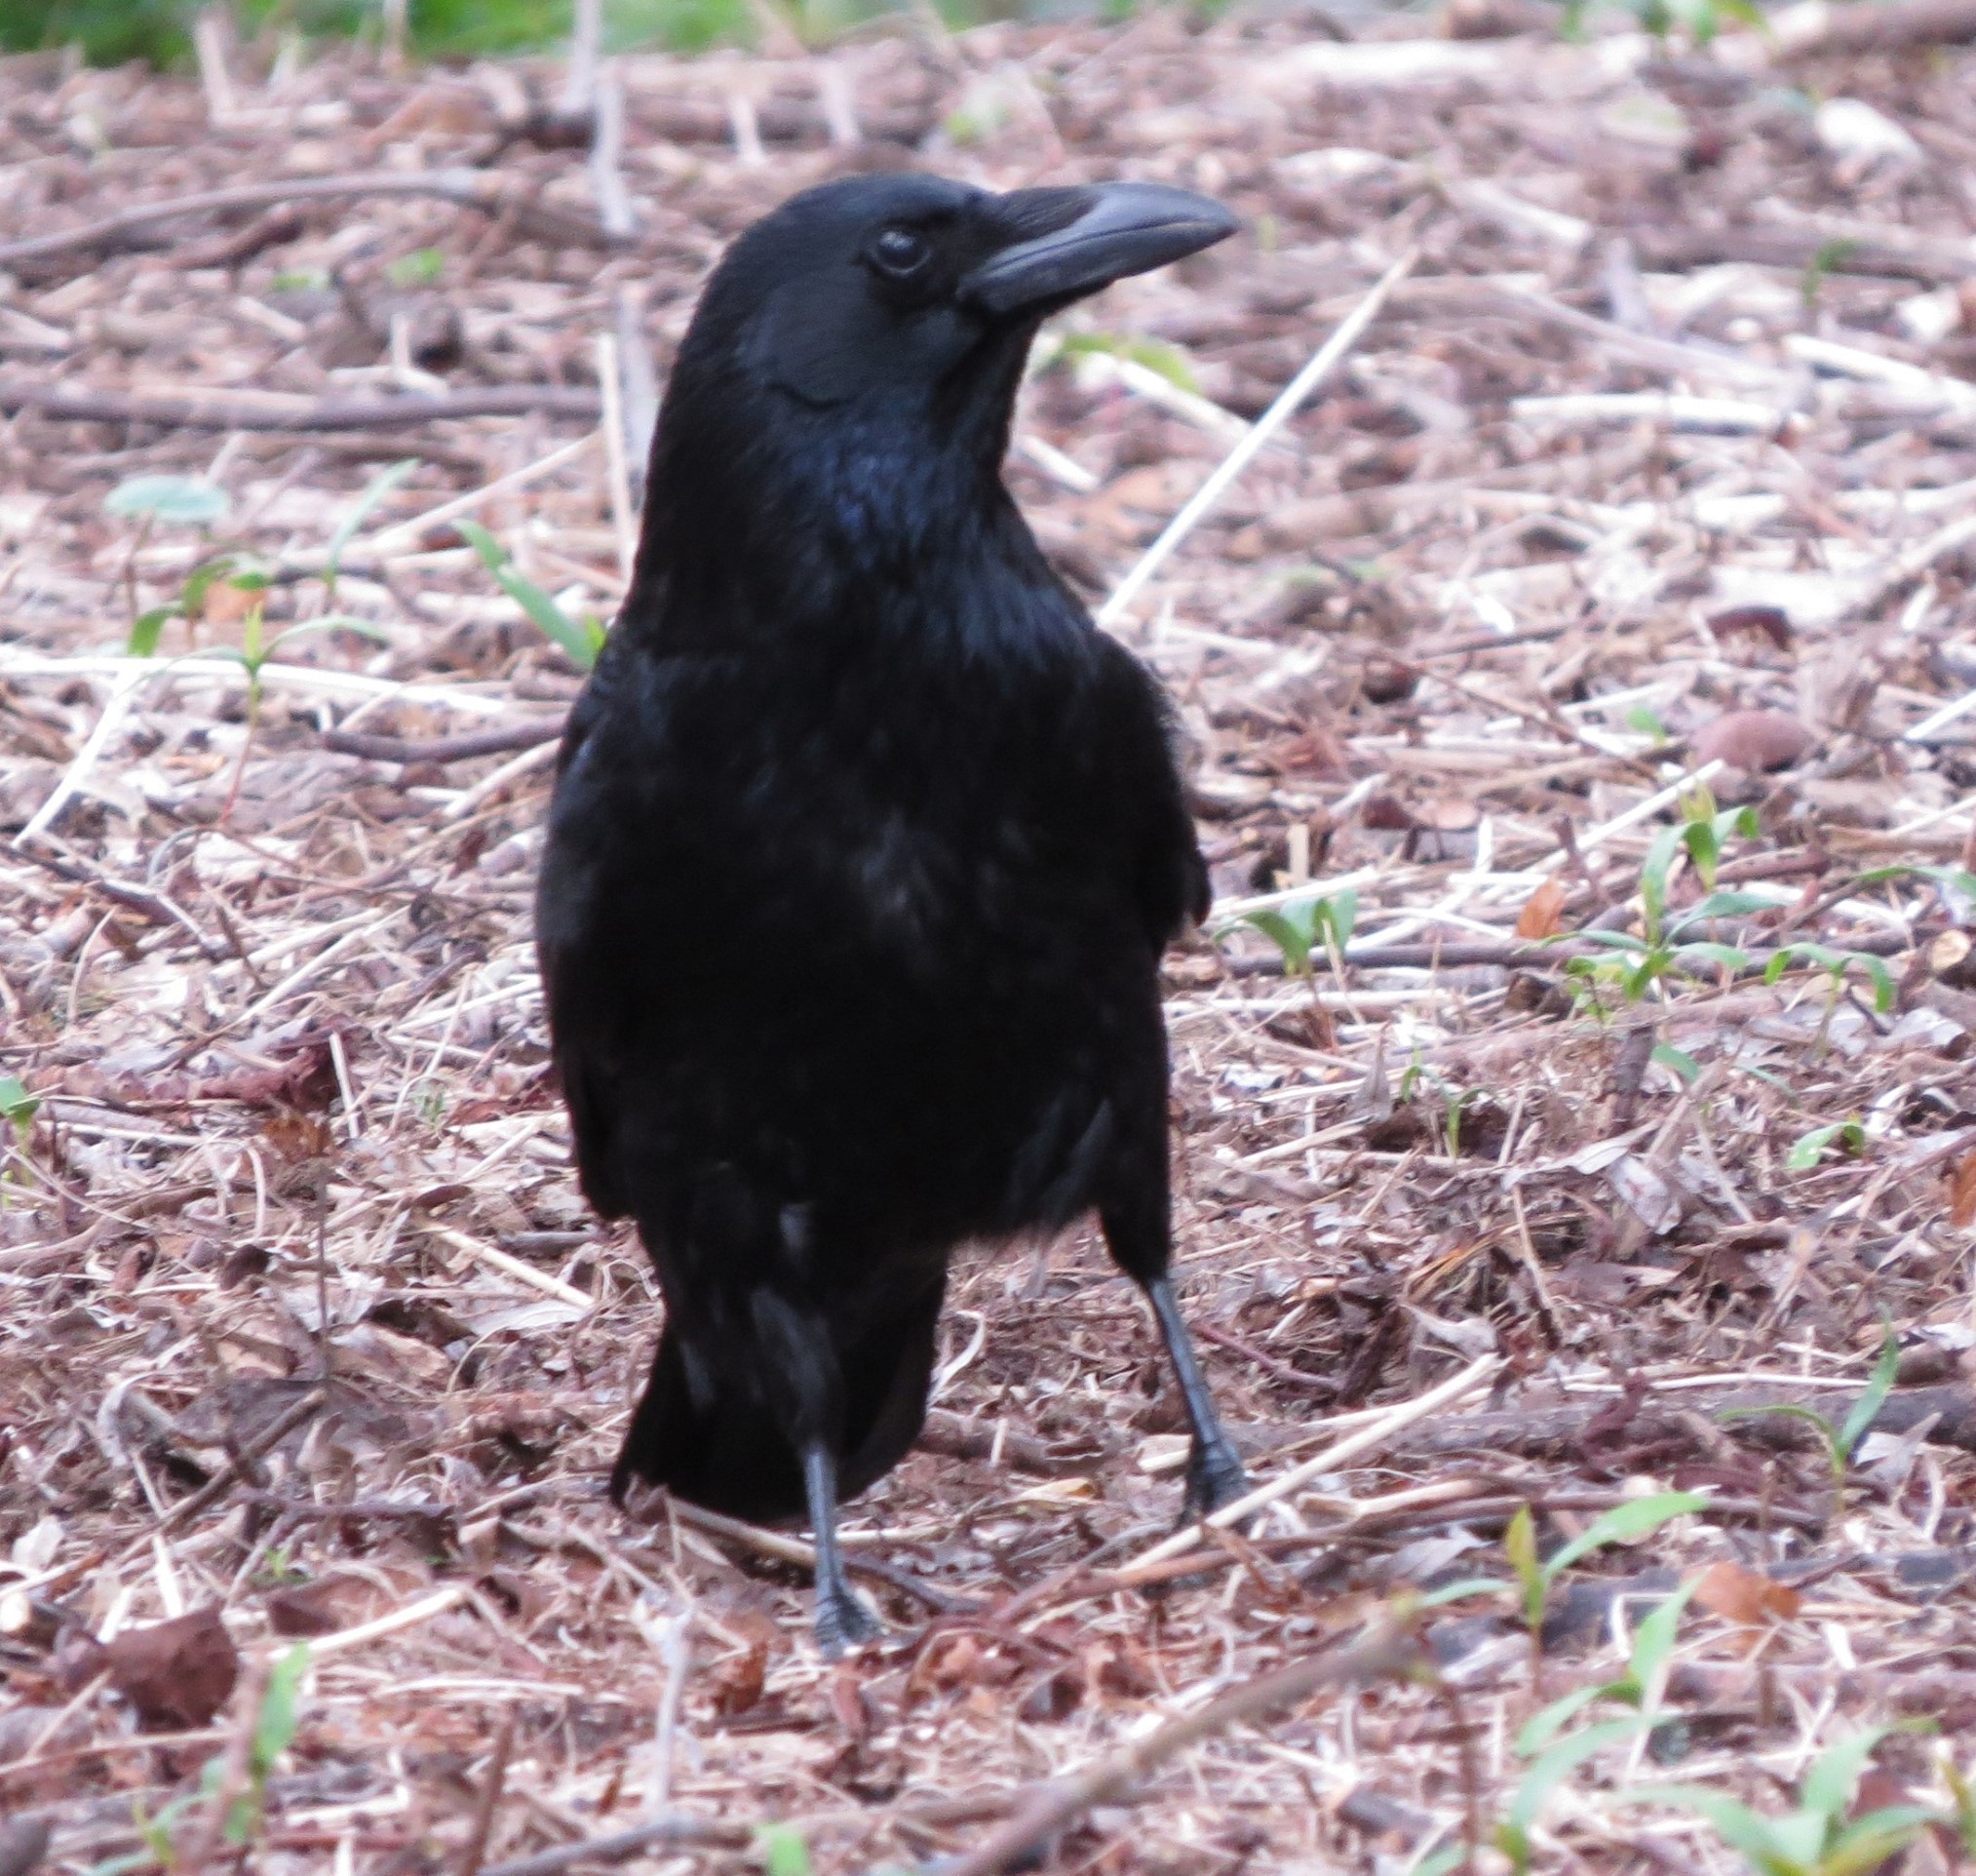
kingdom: Animalia
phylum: Chordata
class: Aves
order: Passeriformes
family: Corvidae
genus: Corvus
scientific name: Corvus corone
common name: Carrion crow
